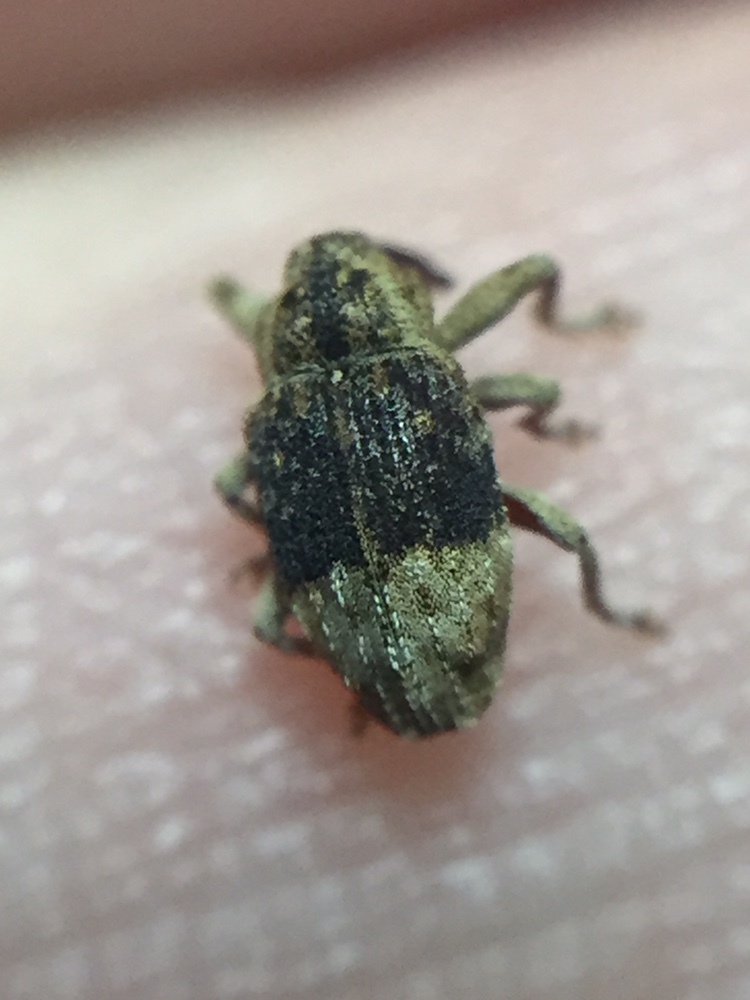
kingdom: Animalia
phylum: Arthropoda
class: Insecta
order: Coleoptera
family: Curculionidae
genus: Emplesis
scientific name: Emplesis bifoveata
